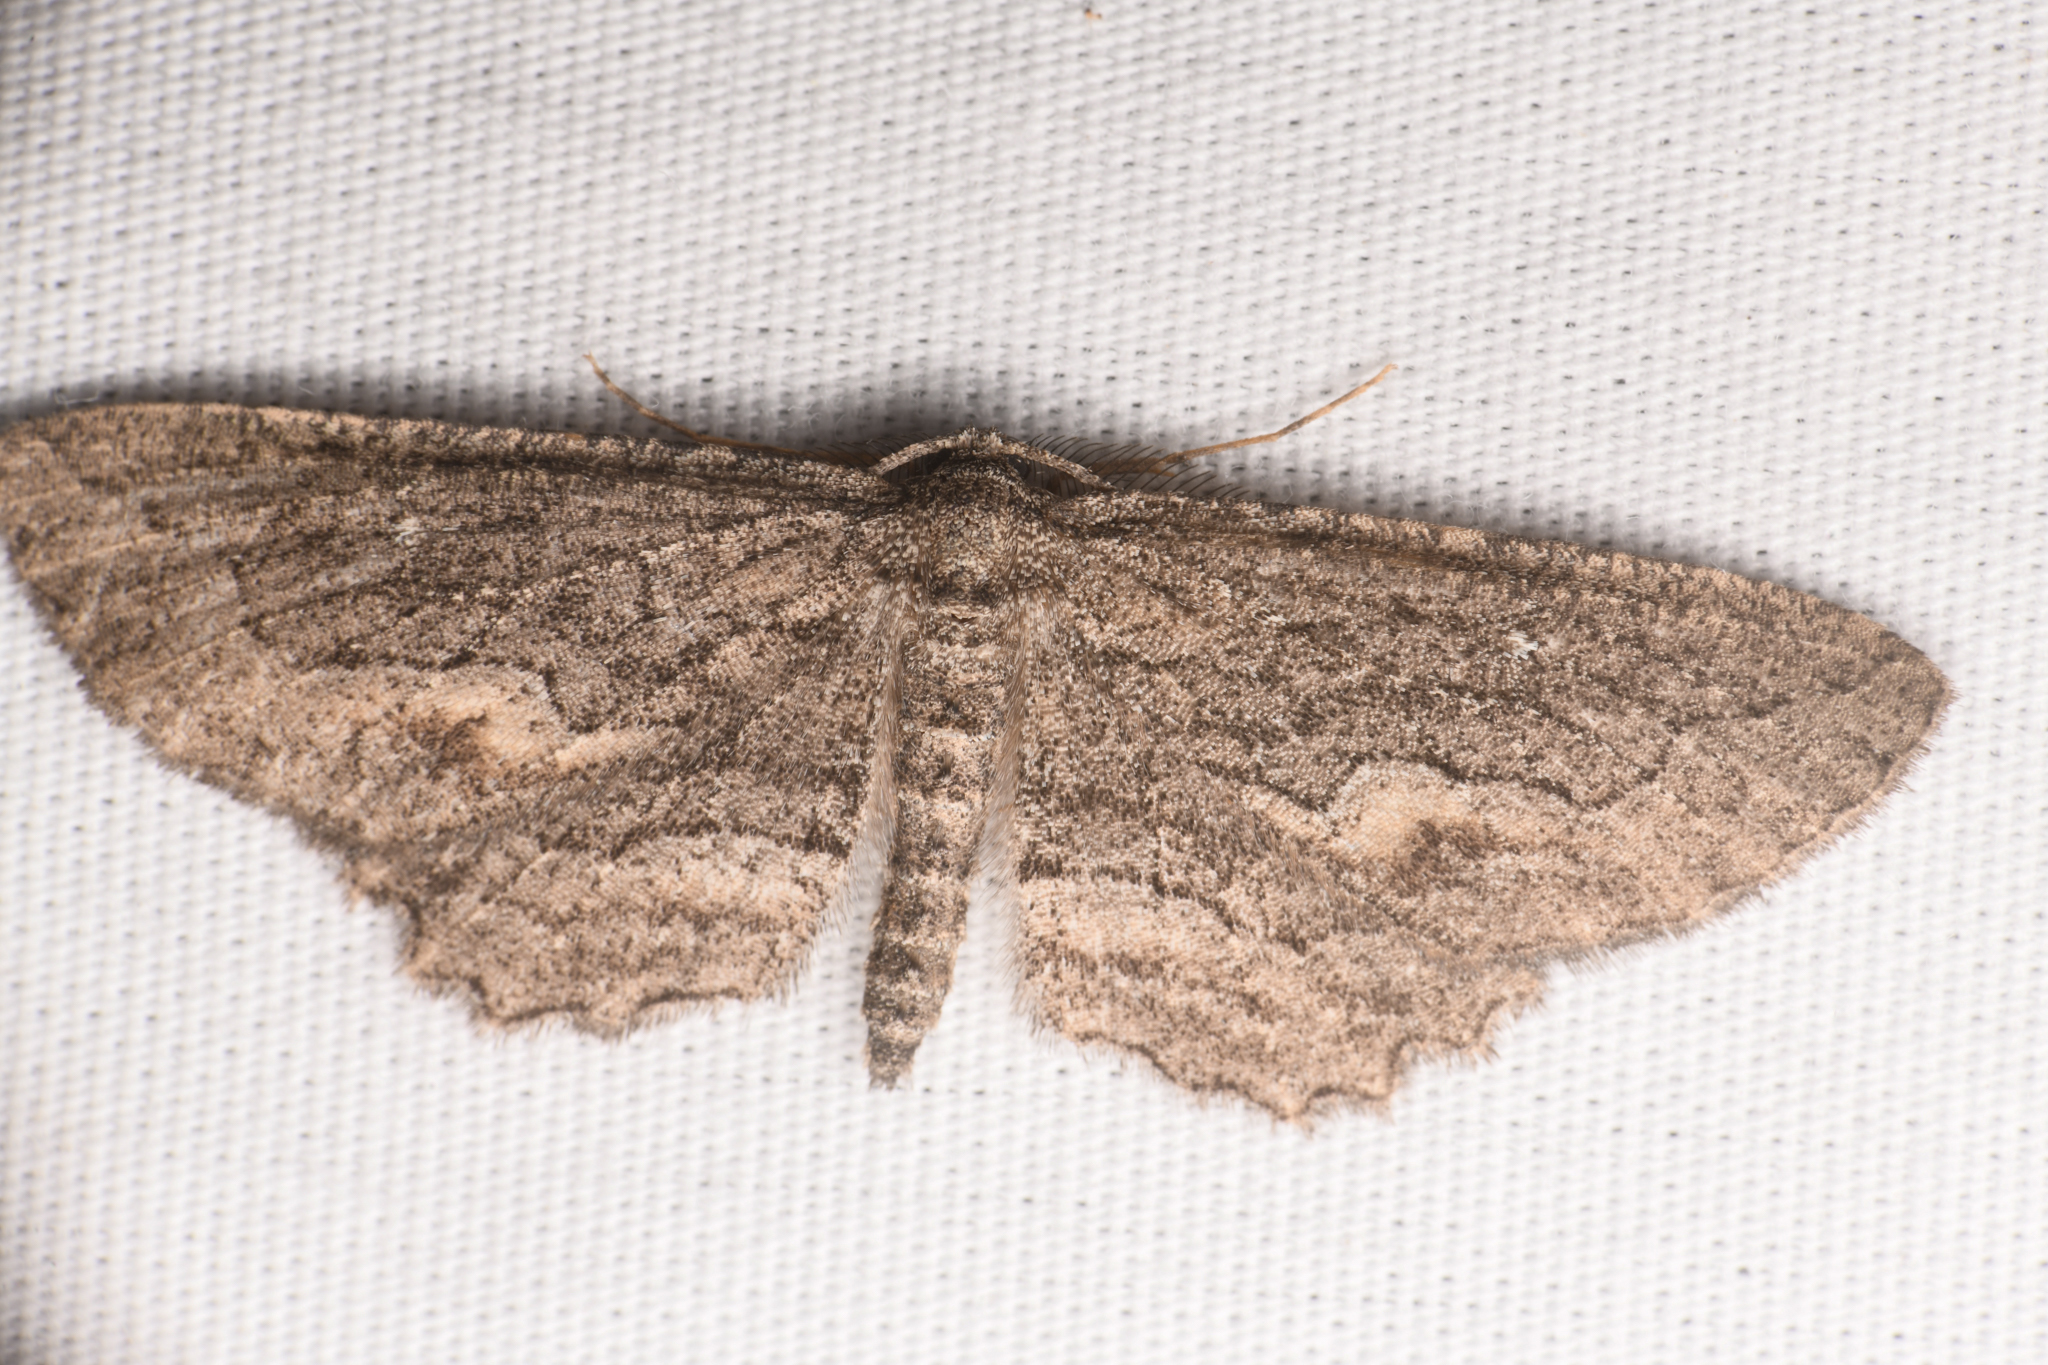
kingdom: Animalia
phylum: Arthropoda
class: Insecta
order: Lepidoptera
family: Geometridae
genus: Aethaloida
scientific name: Aethaloida packardaria
